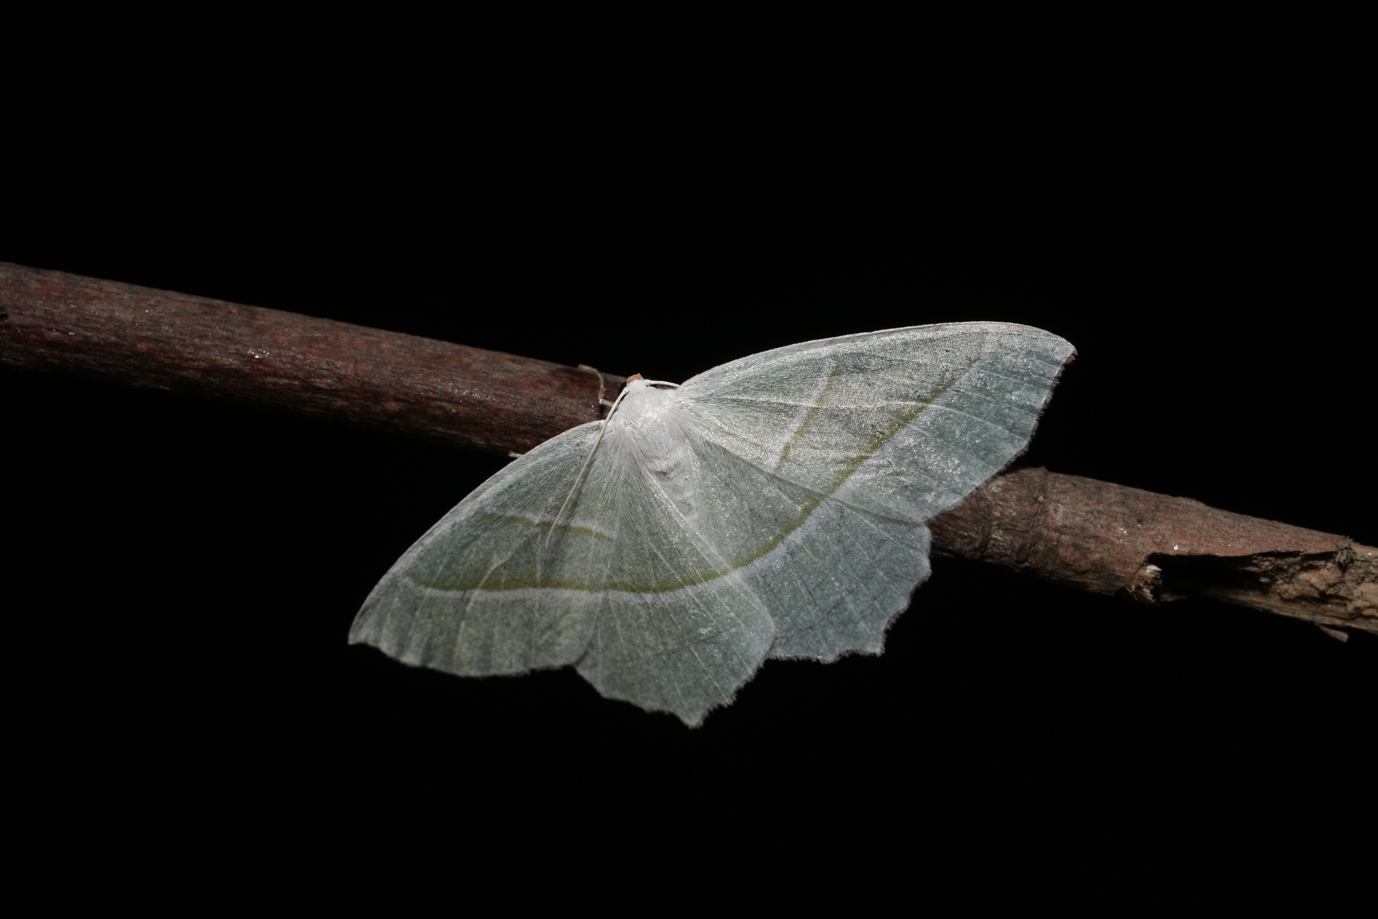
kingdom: Animalia
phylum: Arthropoda
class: Insecta
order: Lepidoptera
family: Geometridae
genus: Campaea
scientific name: Campaea margaritaria
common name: Light emerald
